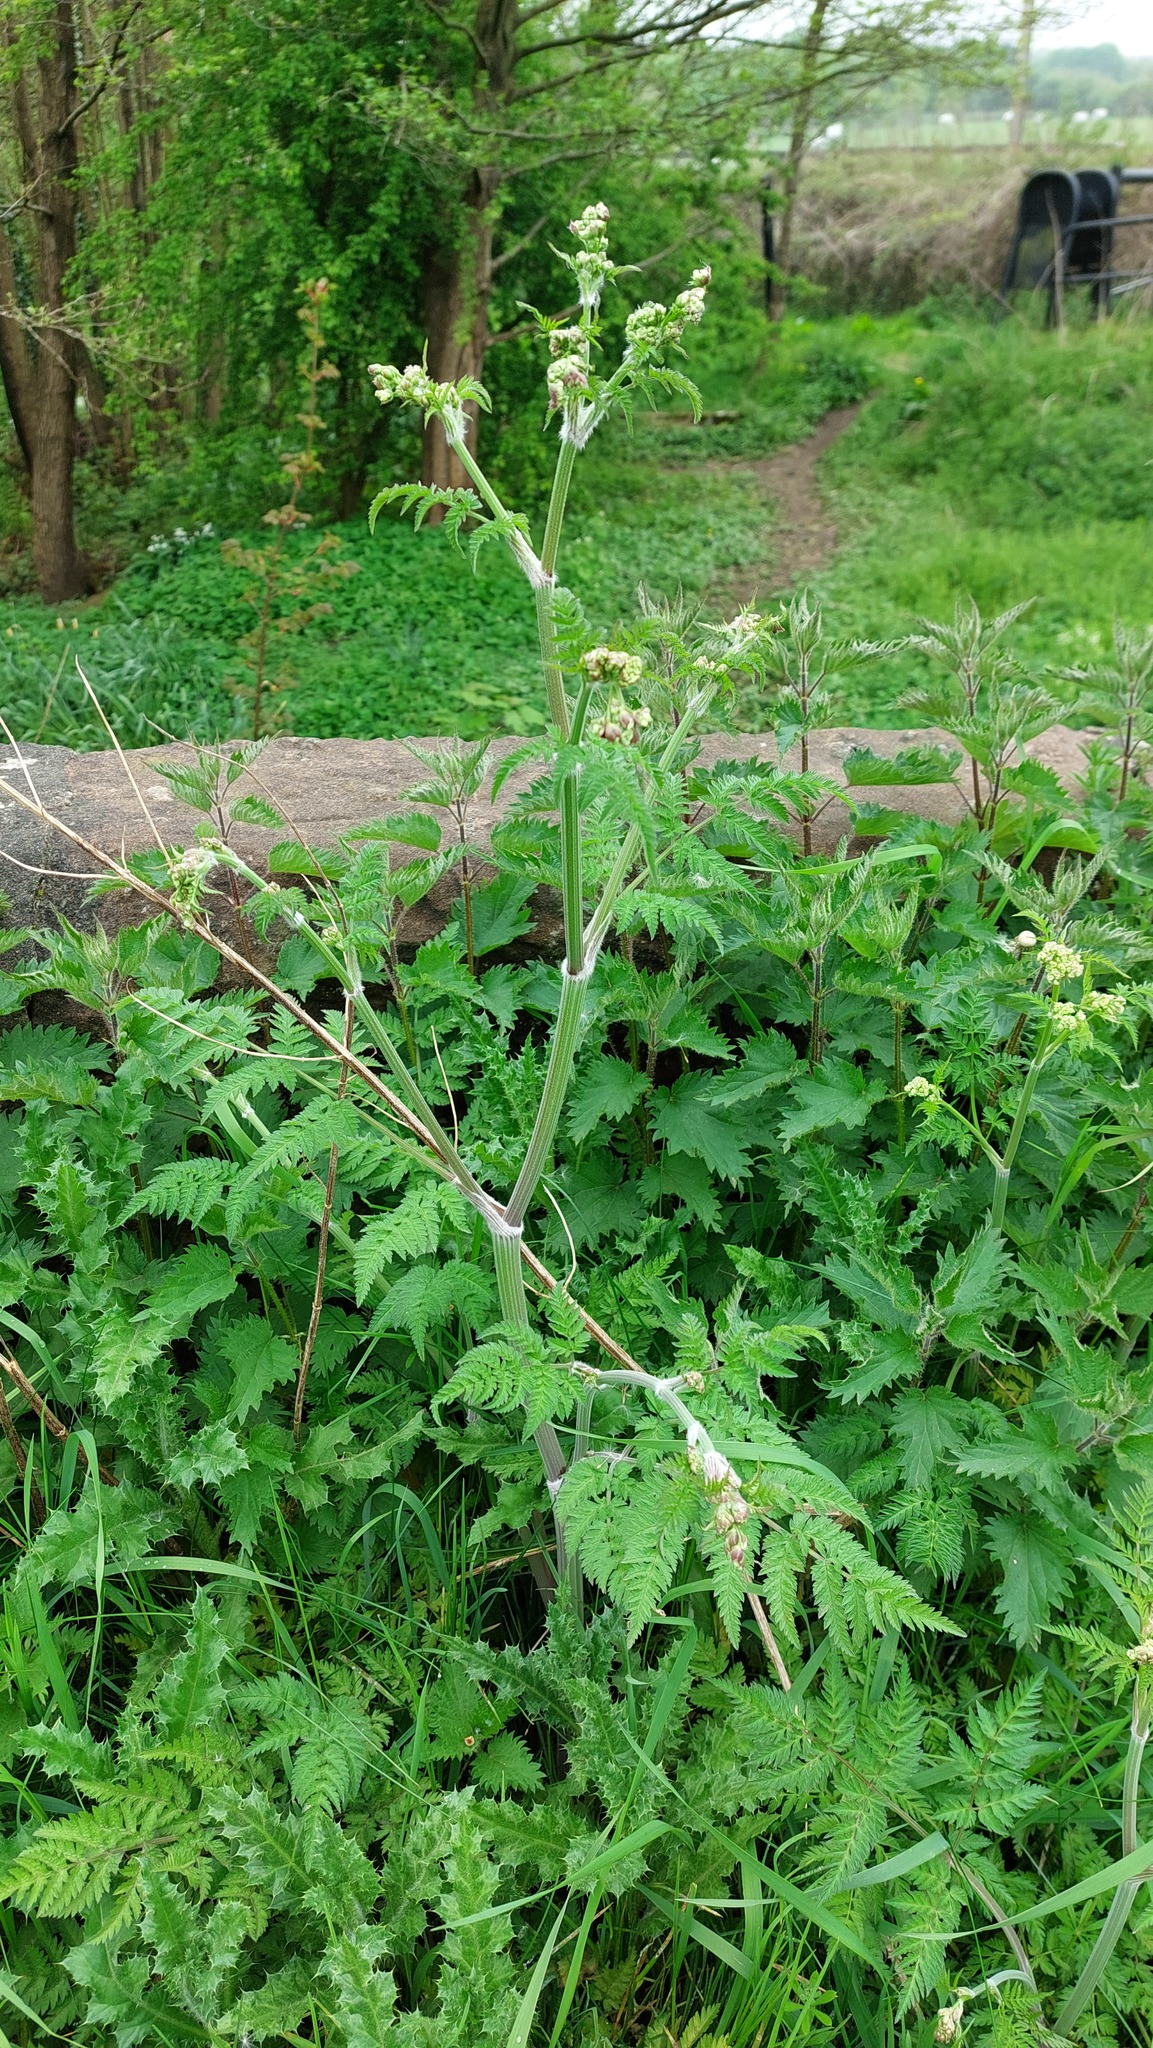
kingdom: Plantae
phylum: Tracheophyta
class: Magnoliopsida
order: Rosales
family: Urticaceae
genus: Urtica
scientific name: Urtica dioica
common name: Common nettle
